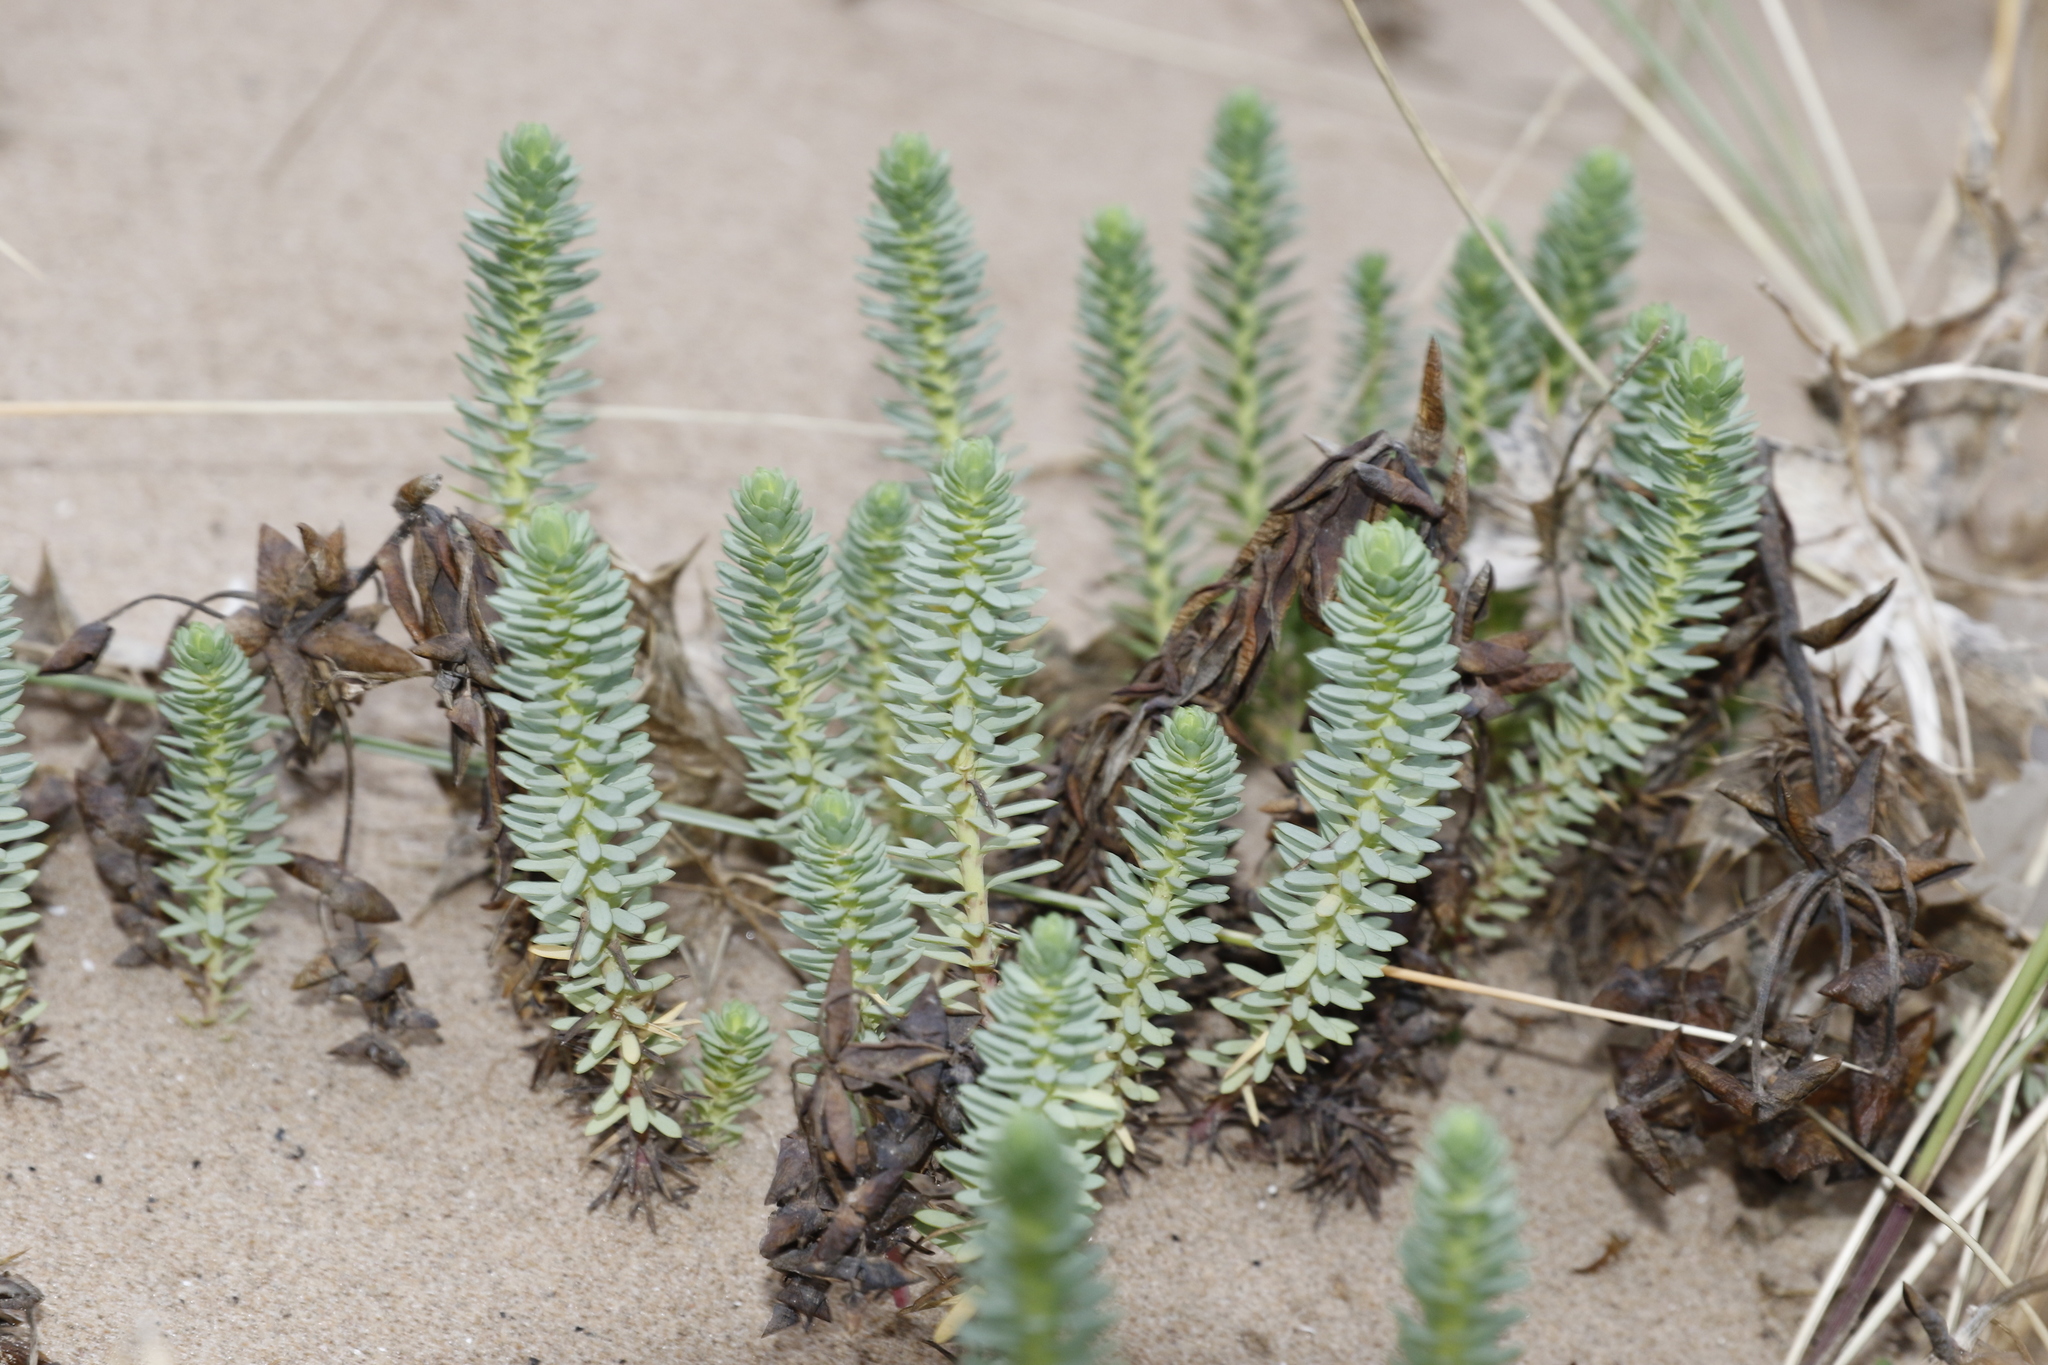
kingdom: Plantae
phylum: Tracheophyta
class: Magnoliopsida
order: Malpighiales
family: Euphorbiaceae
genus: Euphorbia
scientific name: Euphorbia paralias
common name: Sea spurge
